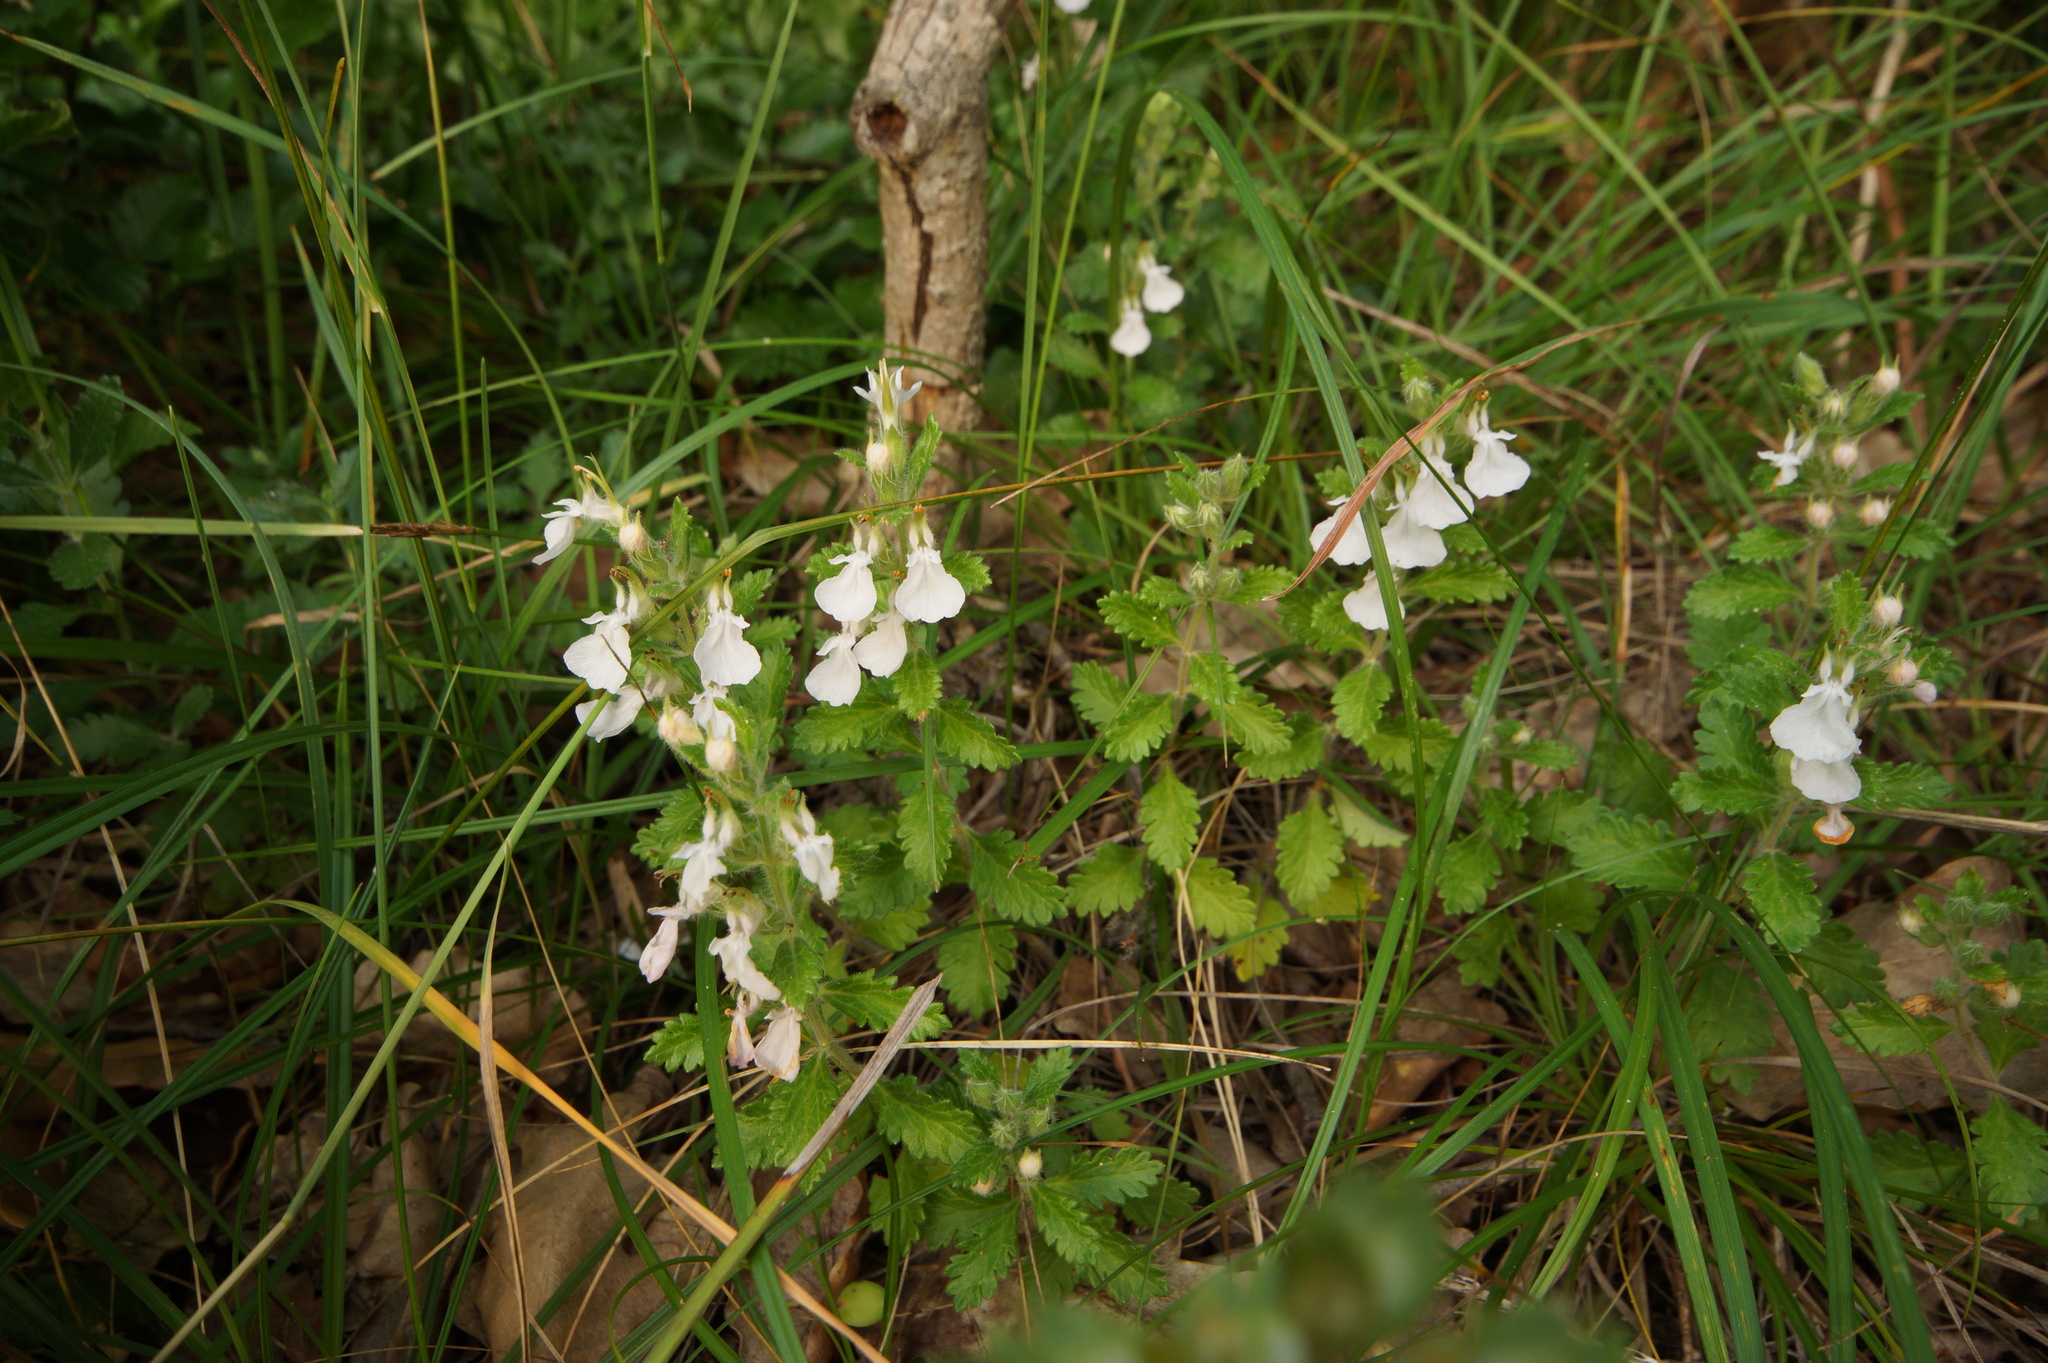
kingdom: Plantae
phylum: Tracheophyta
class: Magnoliopsida
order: Lamiales
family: Lamiaceae
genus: Teucrium
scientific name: Teucrium chamaedrys
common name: Wall germander
